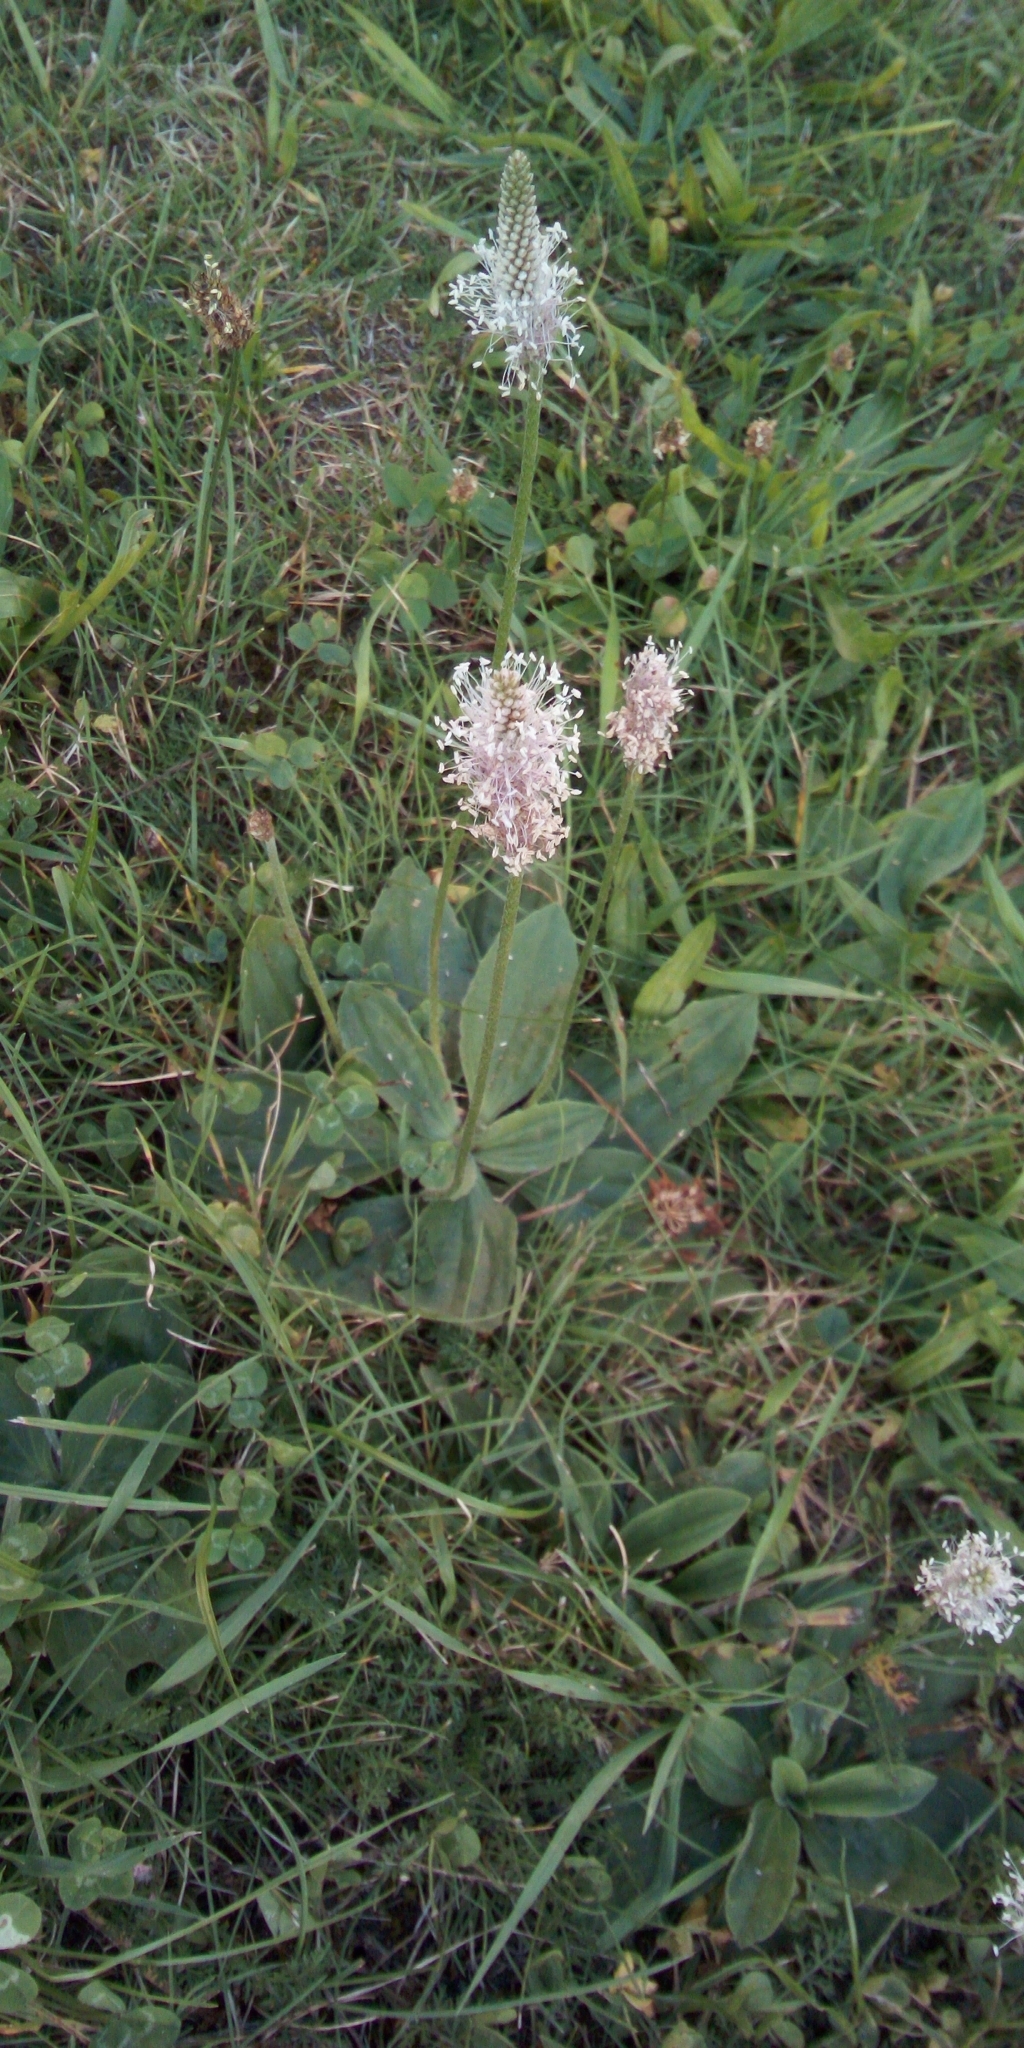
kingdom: Plantae
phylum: Tracheophyta
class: Magnoliopsida
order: Lamiales
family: Plantaginaceae
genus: Plantago
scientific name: Plantago media
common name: Hoary plantain
